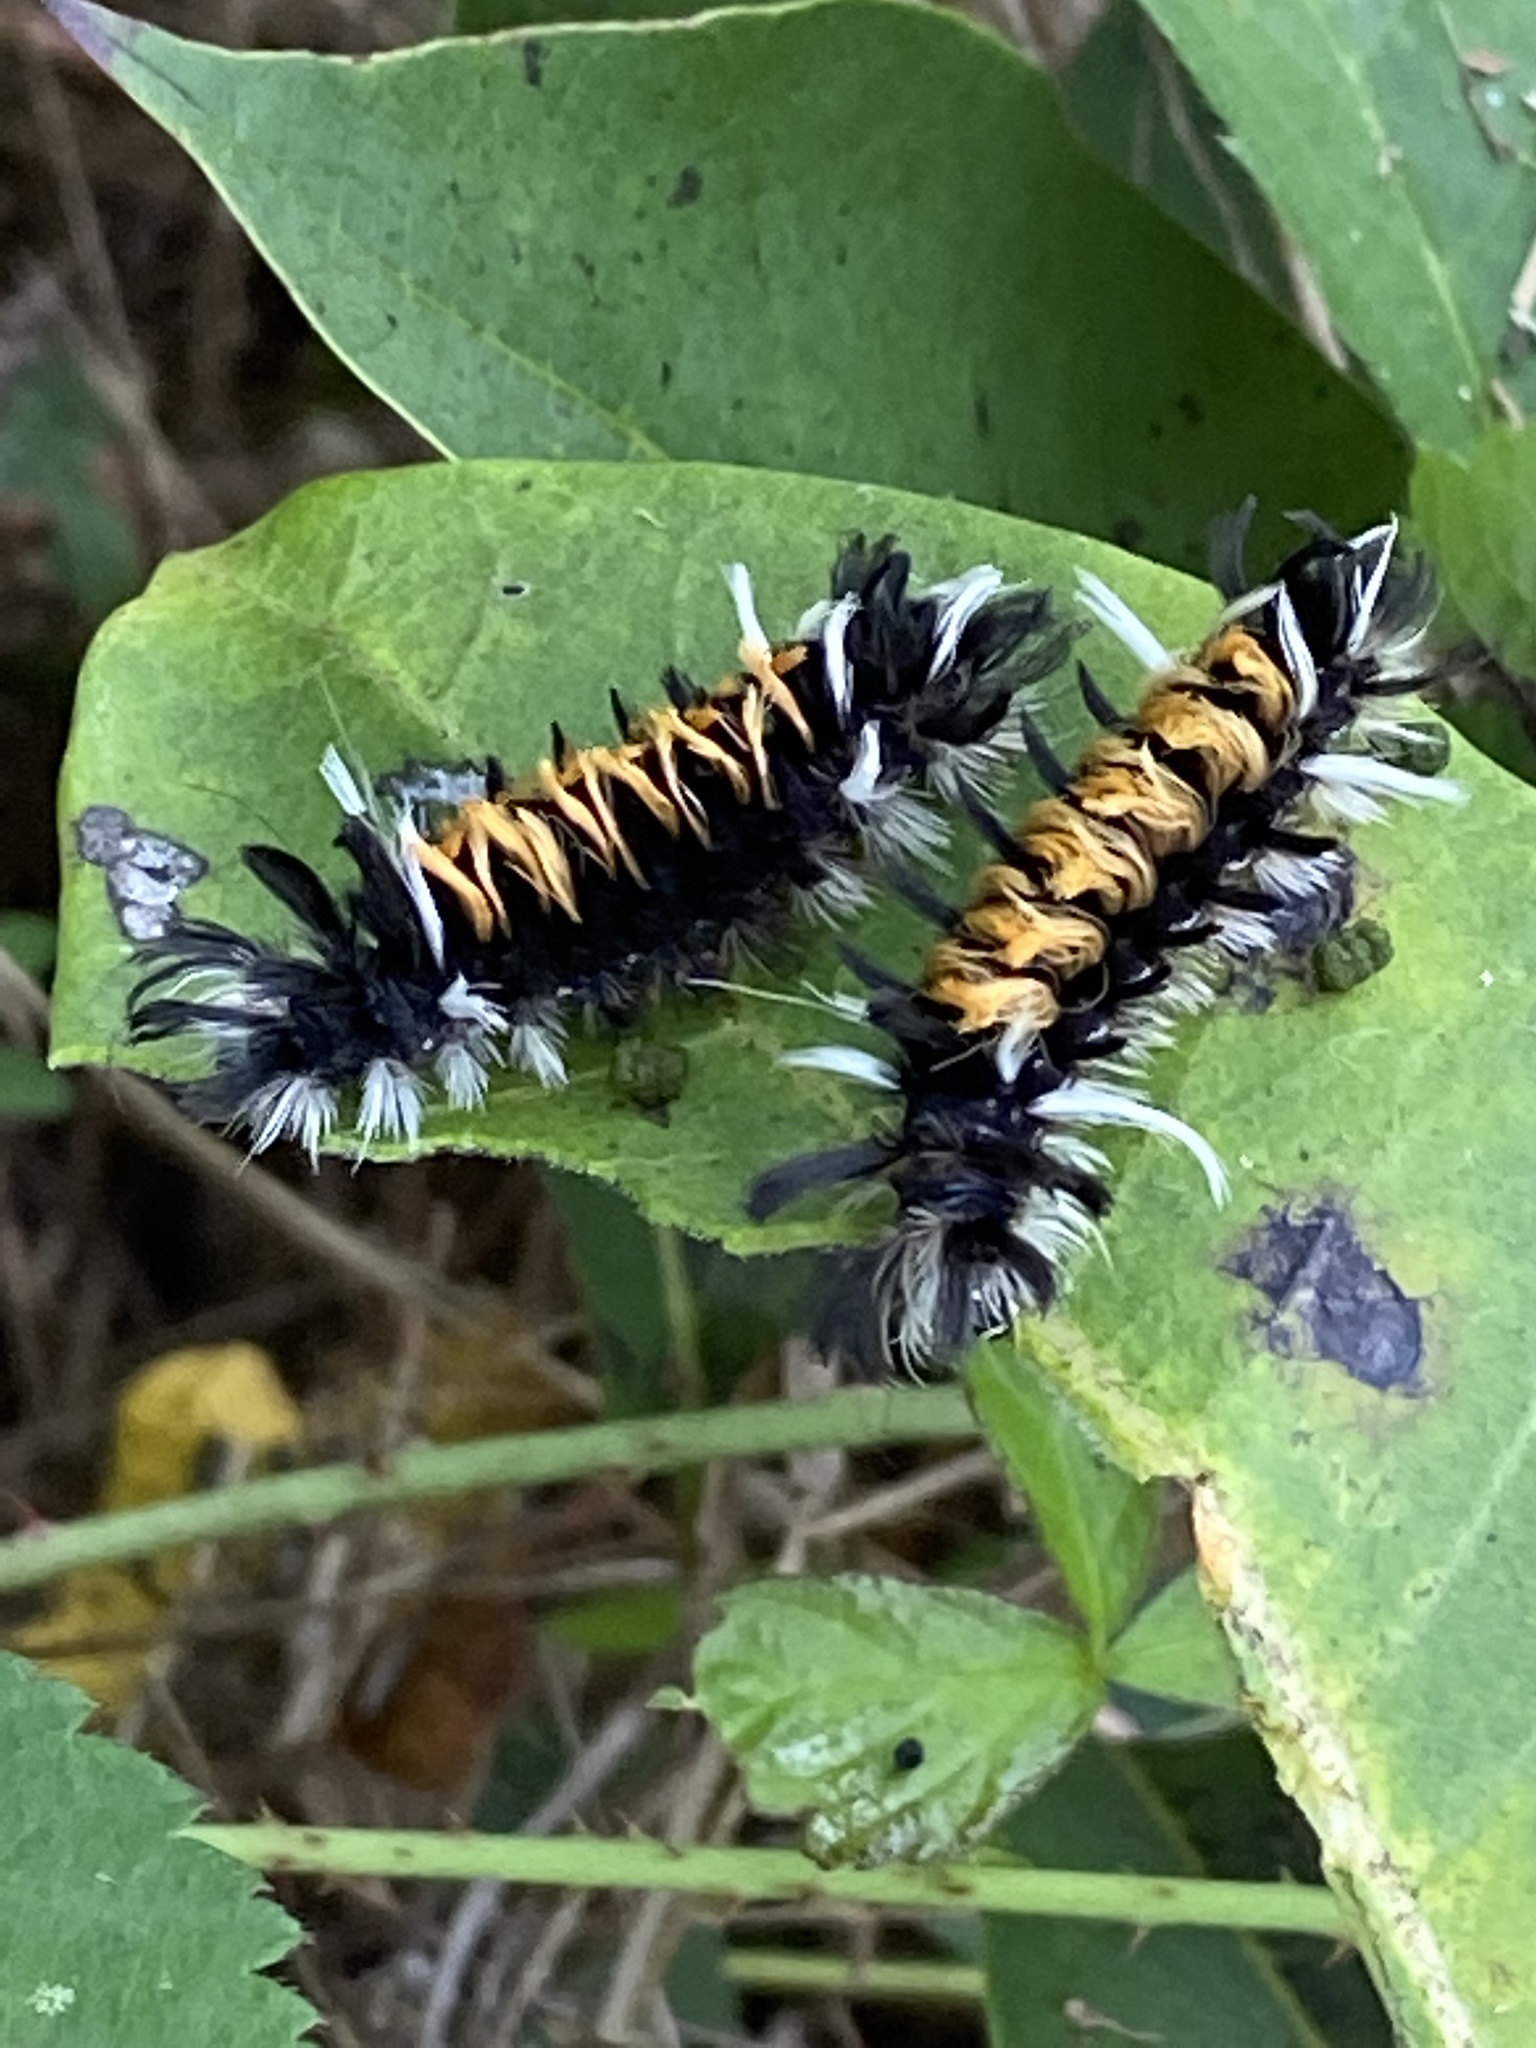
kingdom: Animalia
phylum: Arthropoda
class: Insecta
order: Lepidoptera
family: Erebidae
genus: Euchaetes
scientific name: Euchaetes egle
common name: Milkweed tussock moth
